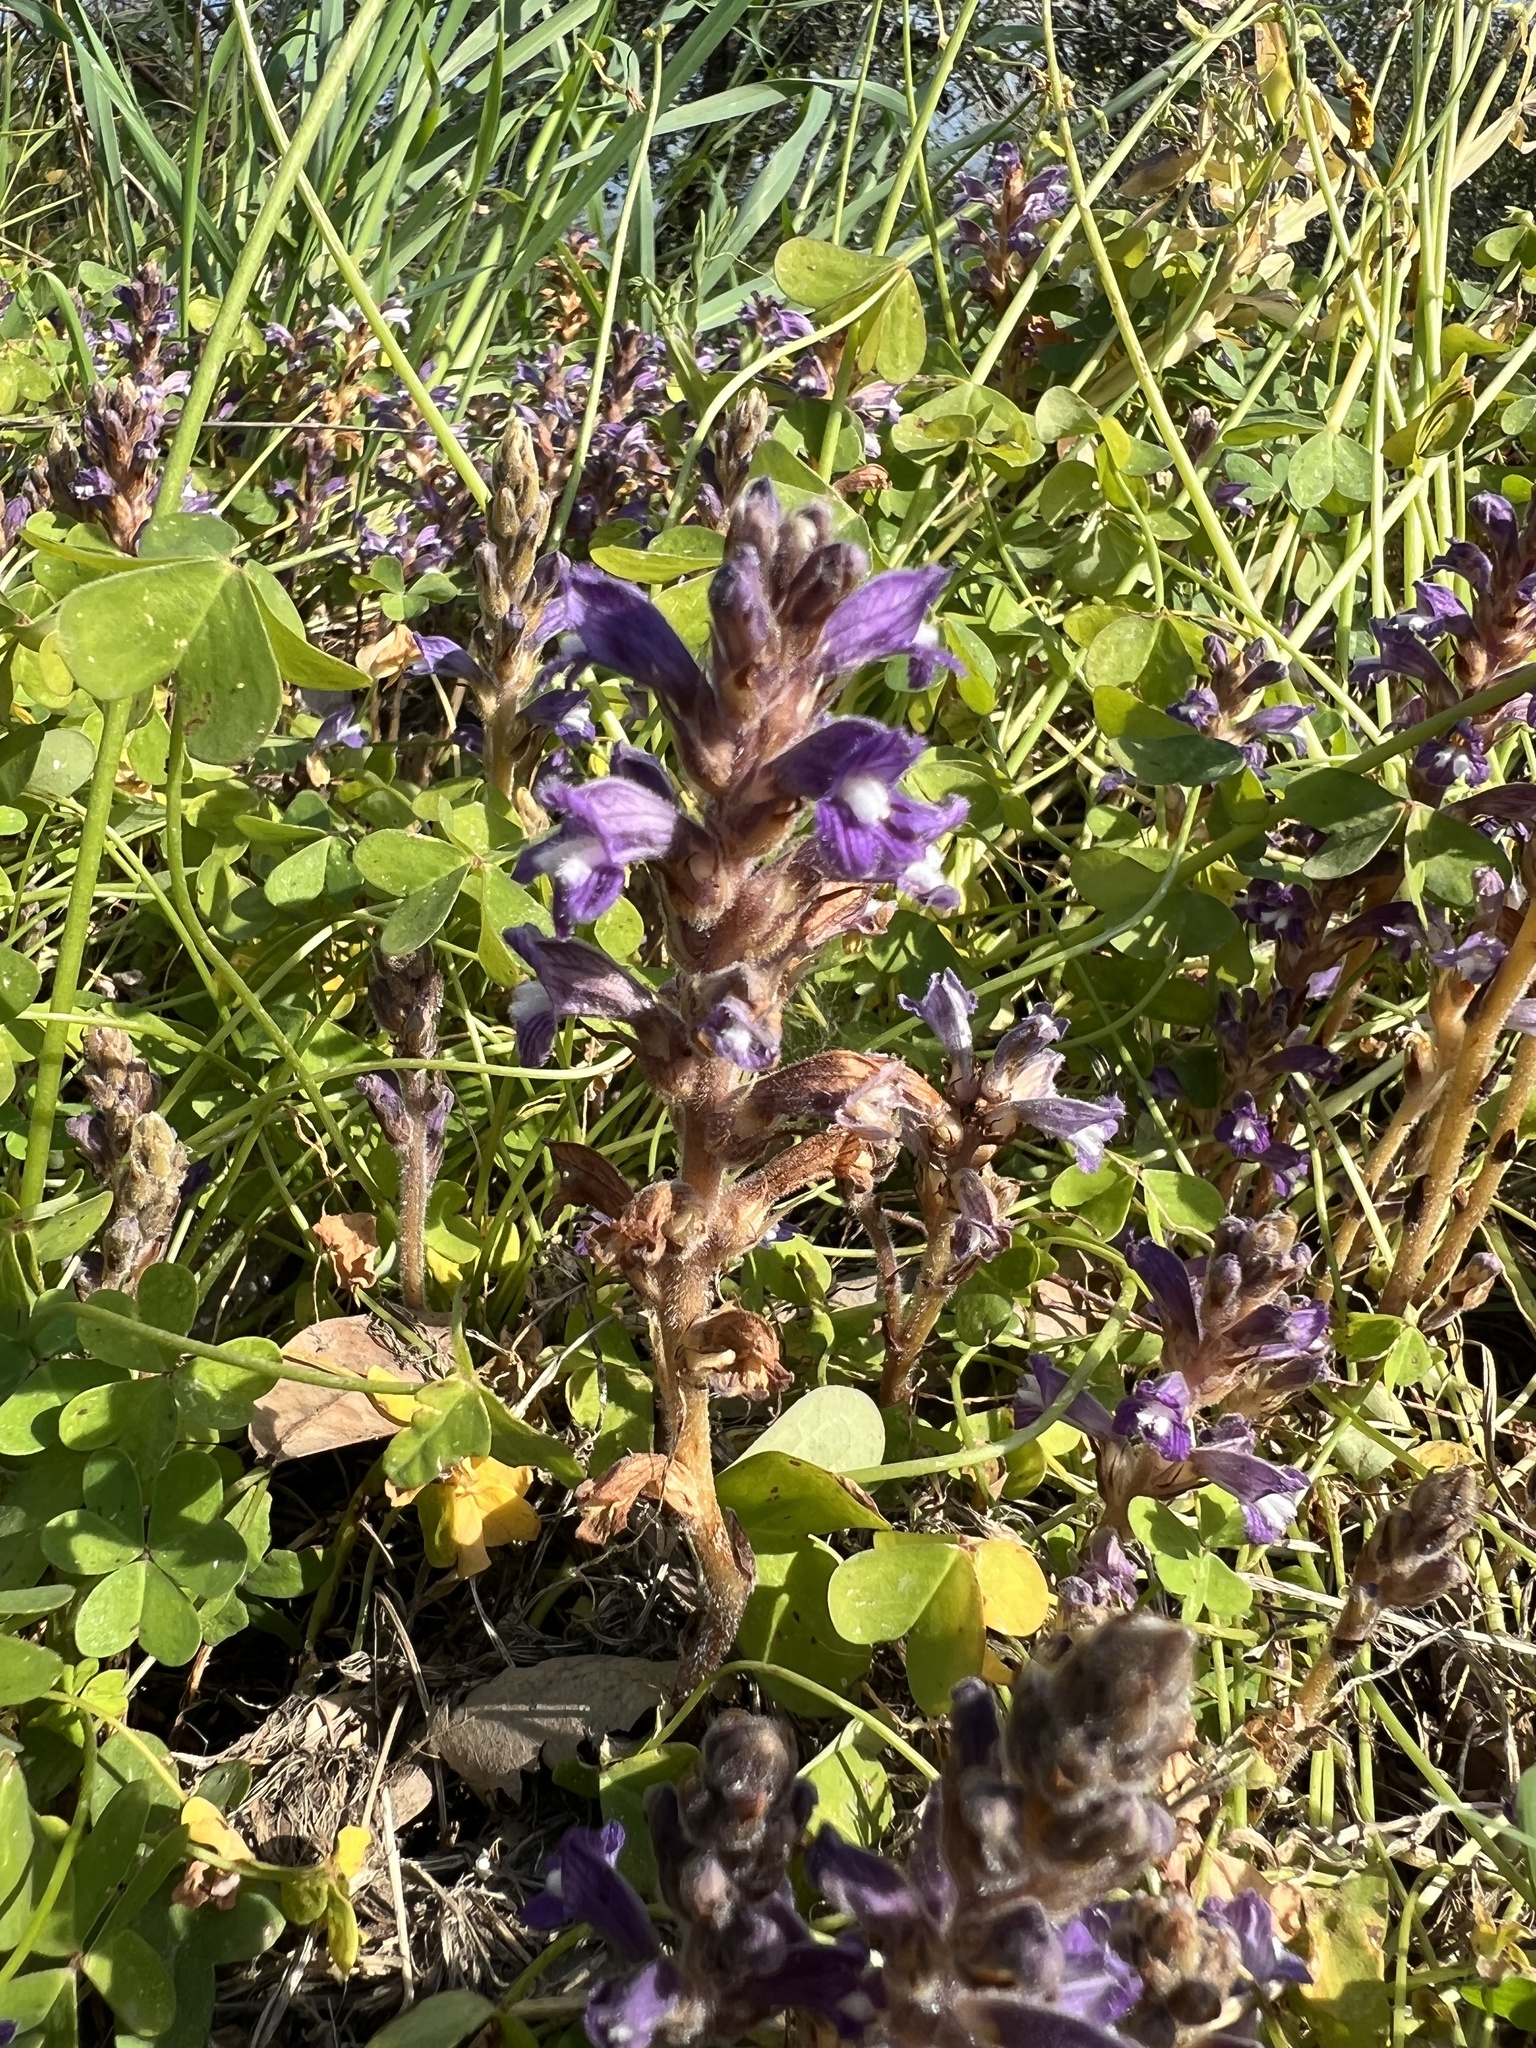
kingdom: Plantae
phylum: Tracheophyta
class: Magnoliopsida
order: Lamiales
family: Orobanchaceae
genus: Phelipanche
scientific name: Phelipanche mutelii
